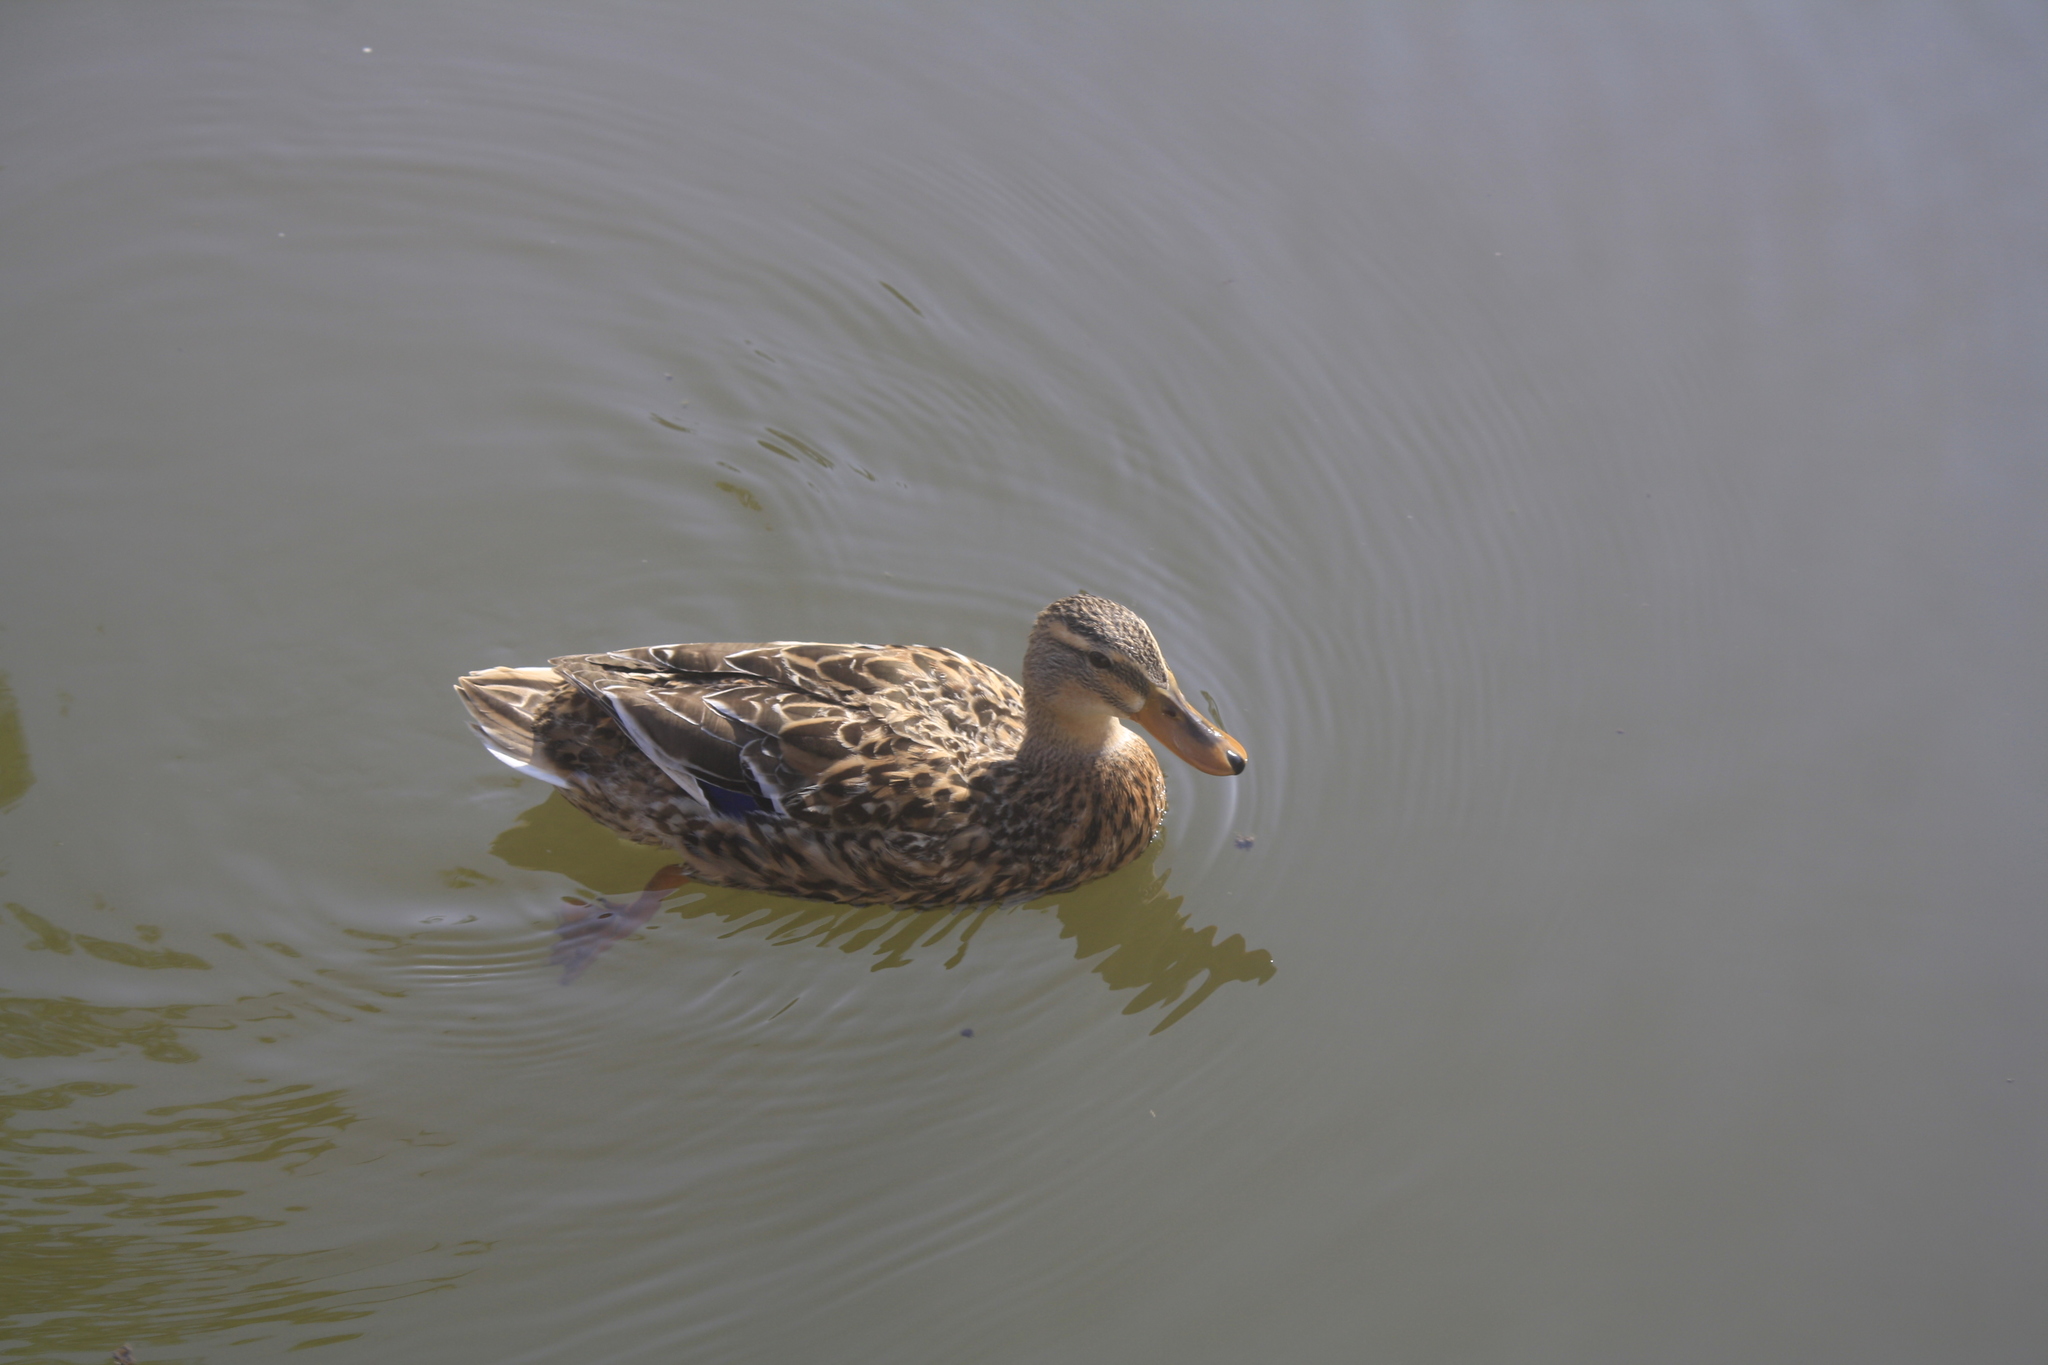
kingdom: Animalia
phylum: Chordata
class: Aves
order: Anseriformes
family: Anatidae
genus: Anas
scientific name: Anas platyrhynchos
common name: Mallard
